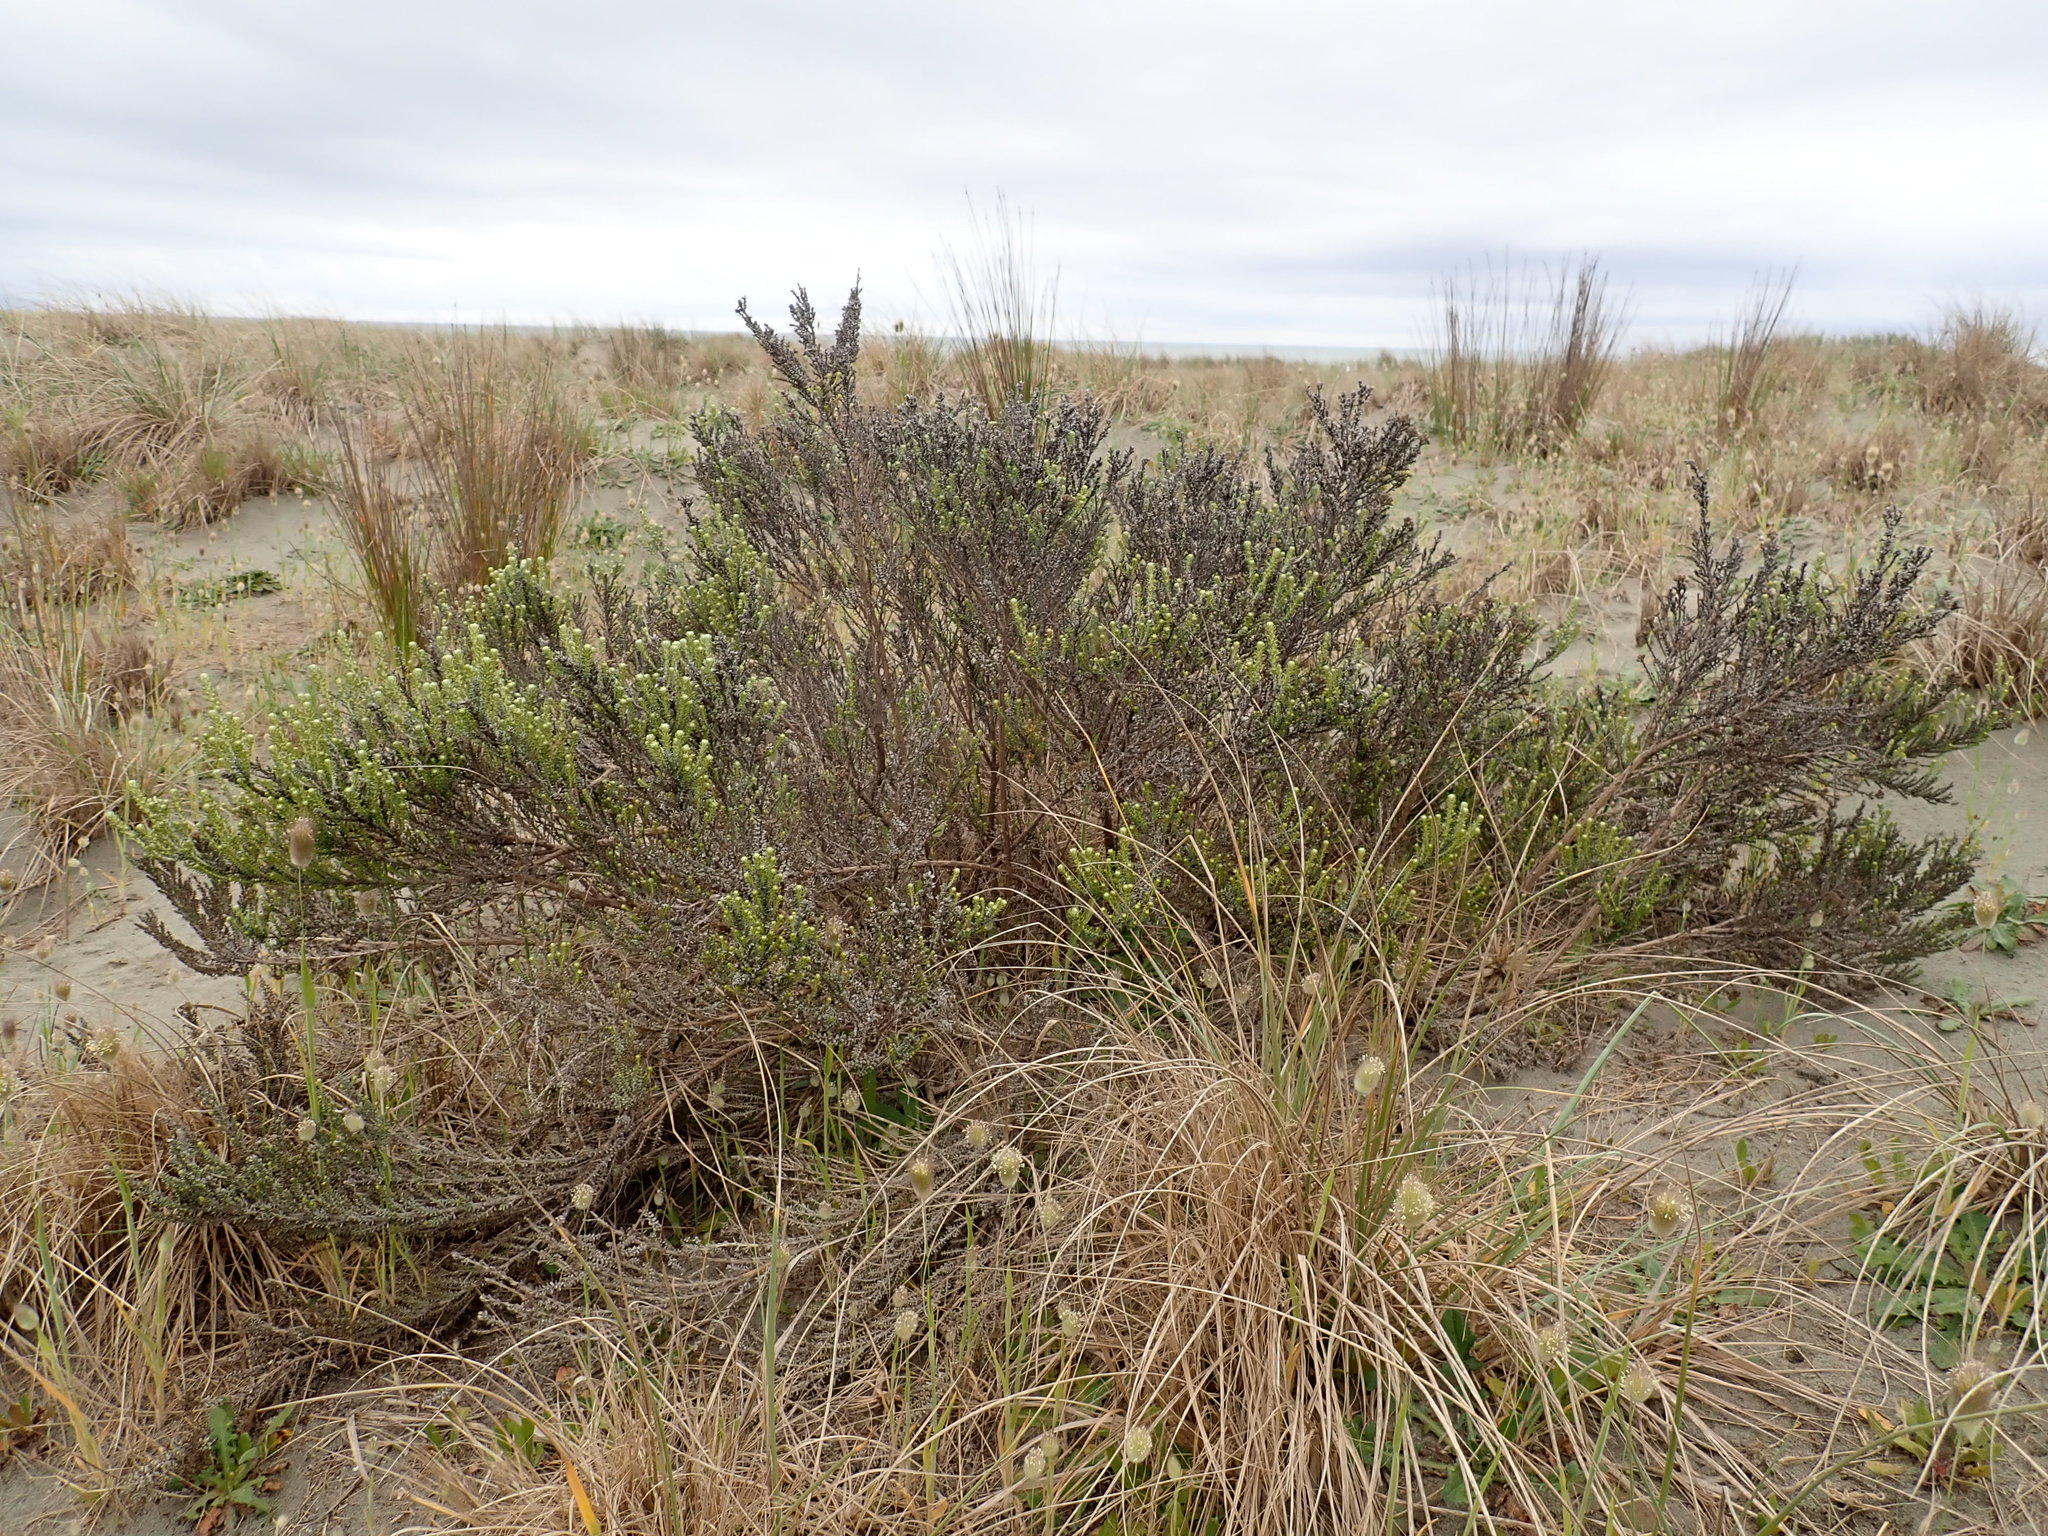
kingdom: Plantae
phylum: Tracheophyta
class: Magnoliopsida
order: Asterales
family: Asteraceae
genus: Ozothamnus
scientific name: Ozothamnus leptophyllus
